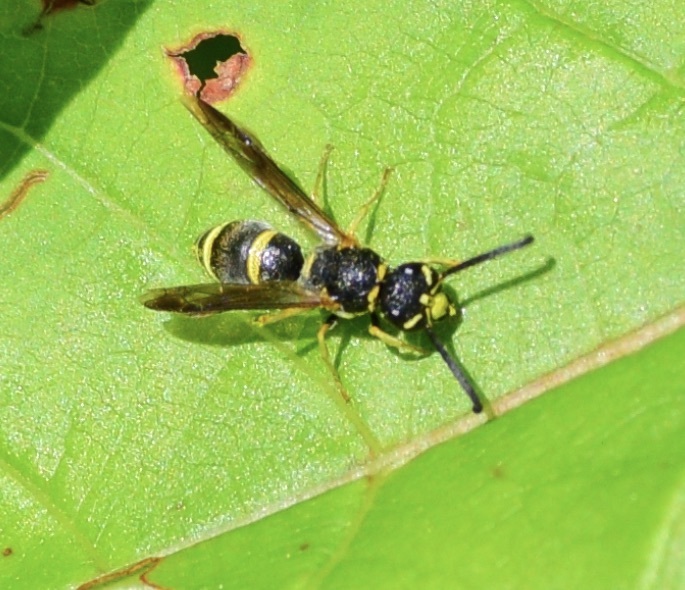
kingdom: Animalia
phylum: Arthropoda
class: Insecta
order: Hymenoptera
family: Eumenidae
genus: Parancistrocerus
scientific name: Parancistrocerus
